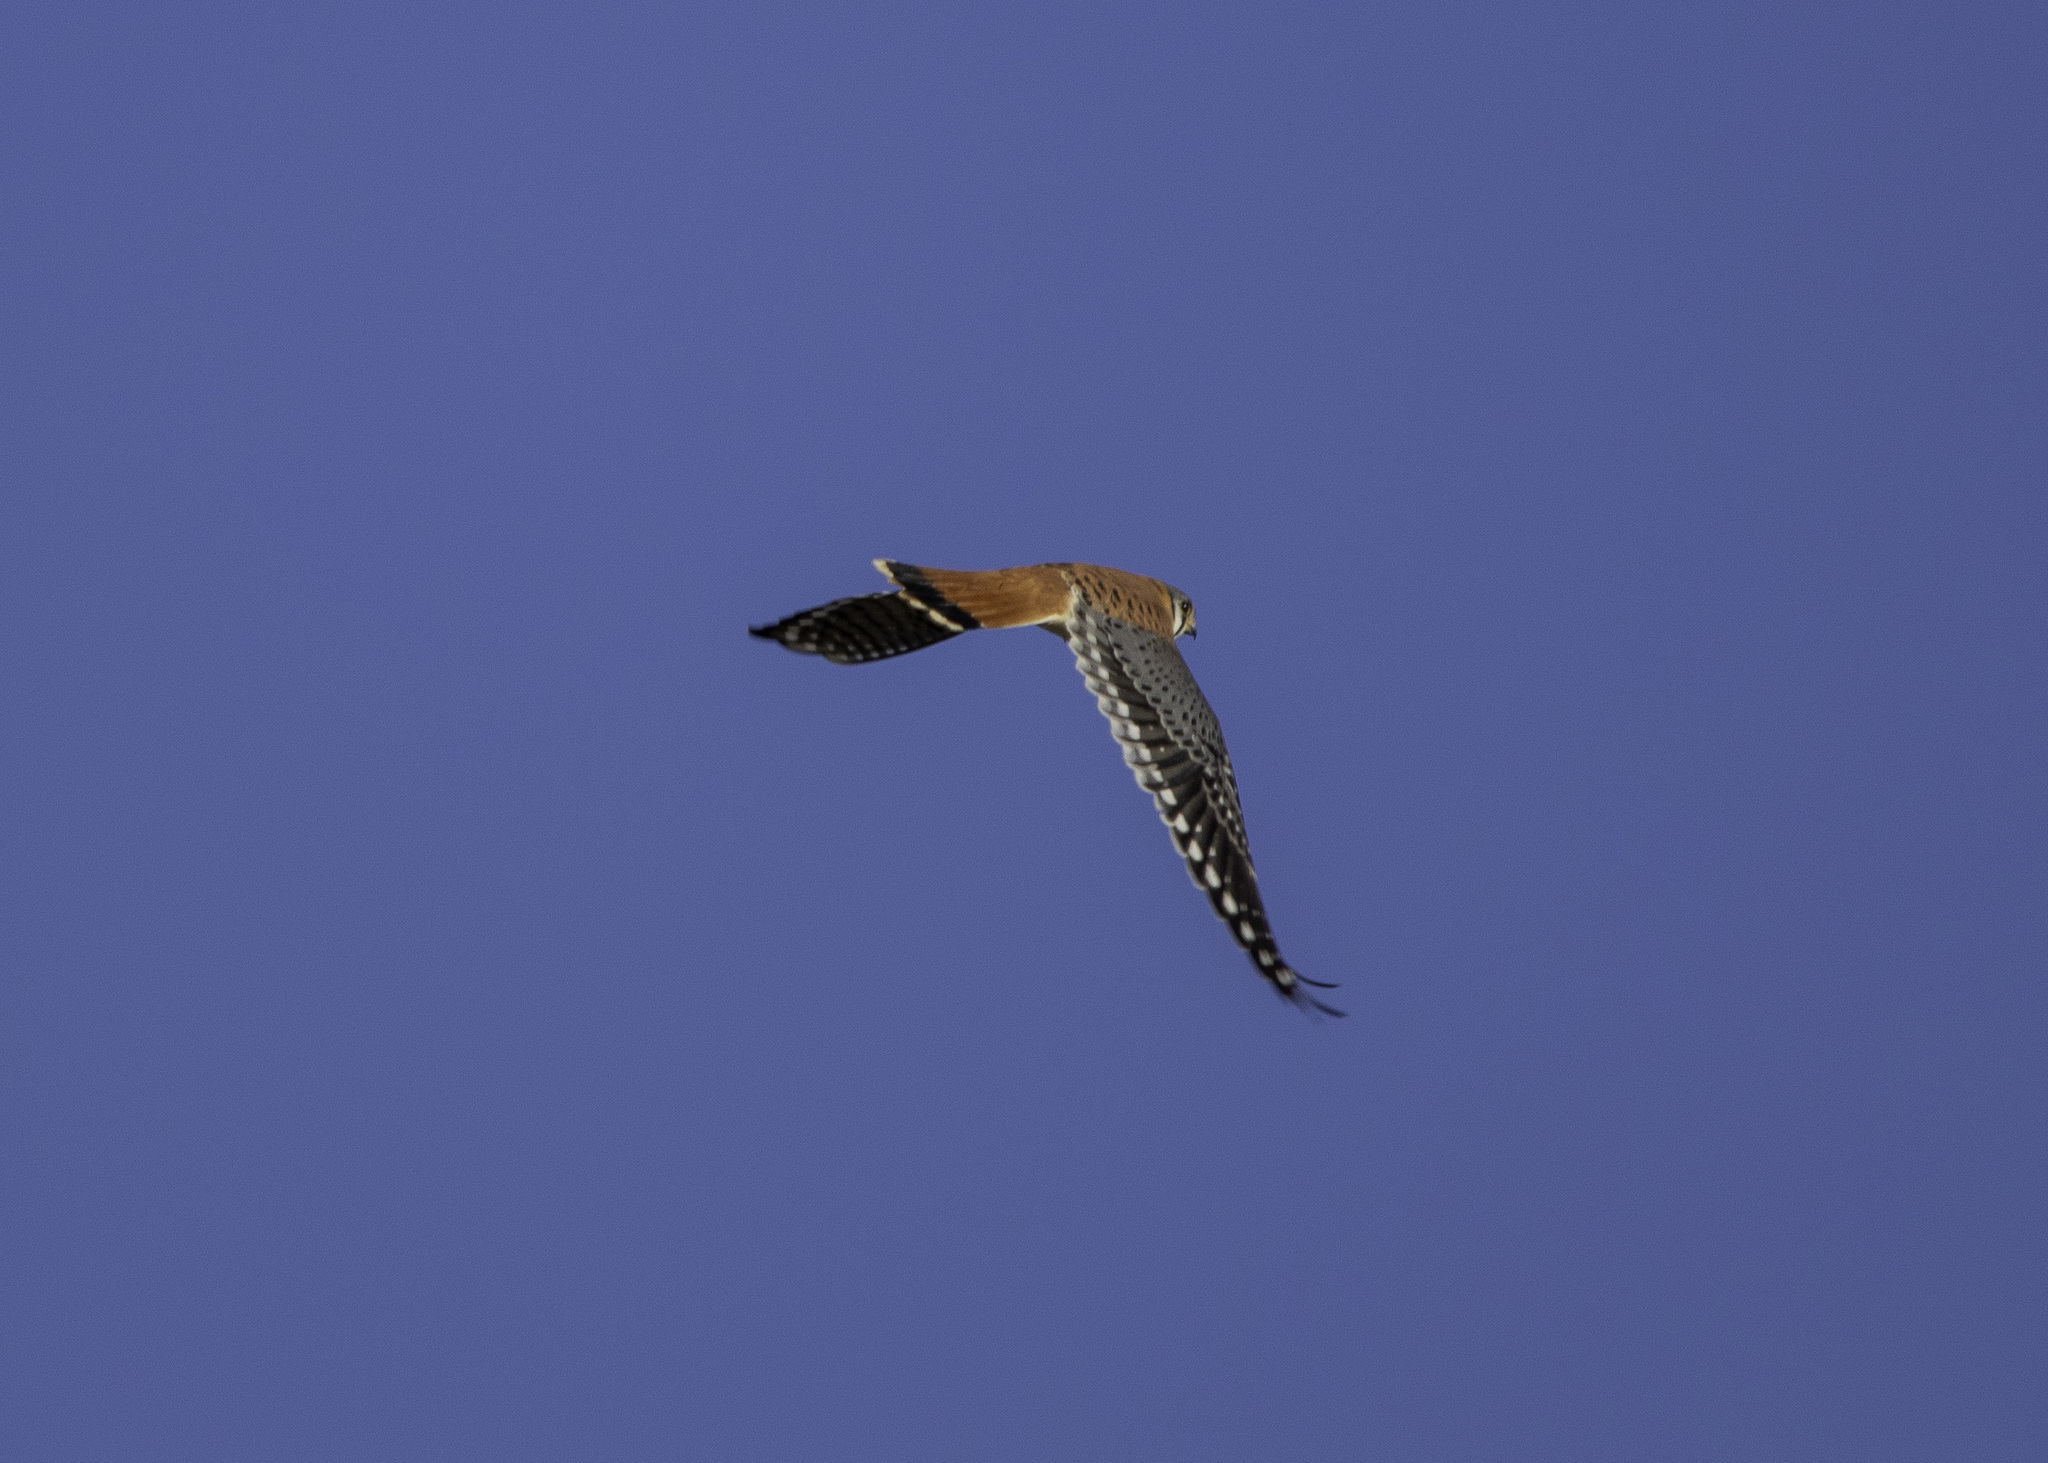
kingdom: Animalia
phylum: Chordata
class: Aves
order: Falconiformes
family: Falconidae
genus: Falco
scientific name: Falco sparverius
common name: American kestrel
